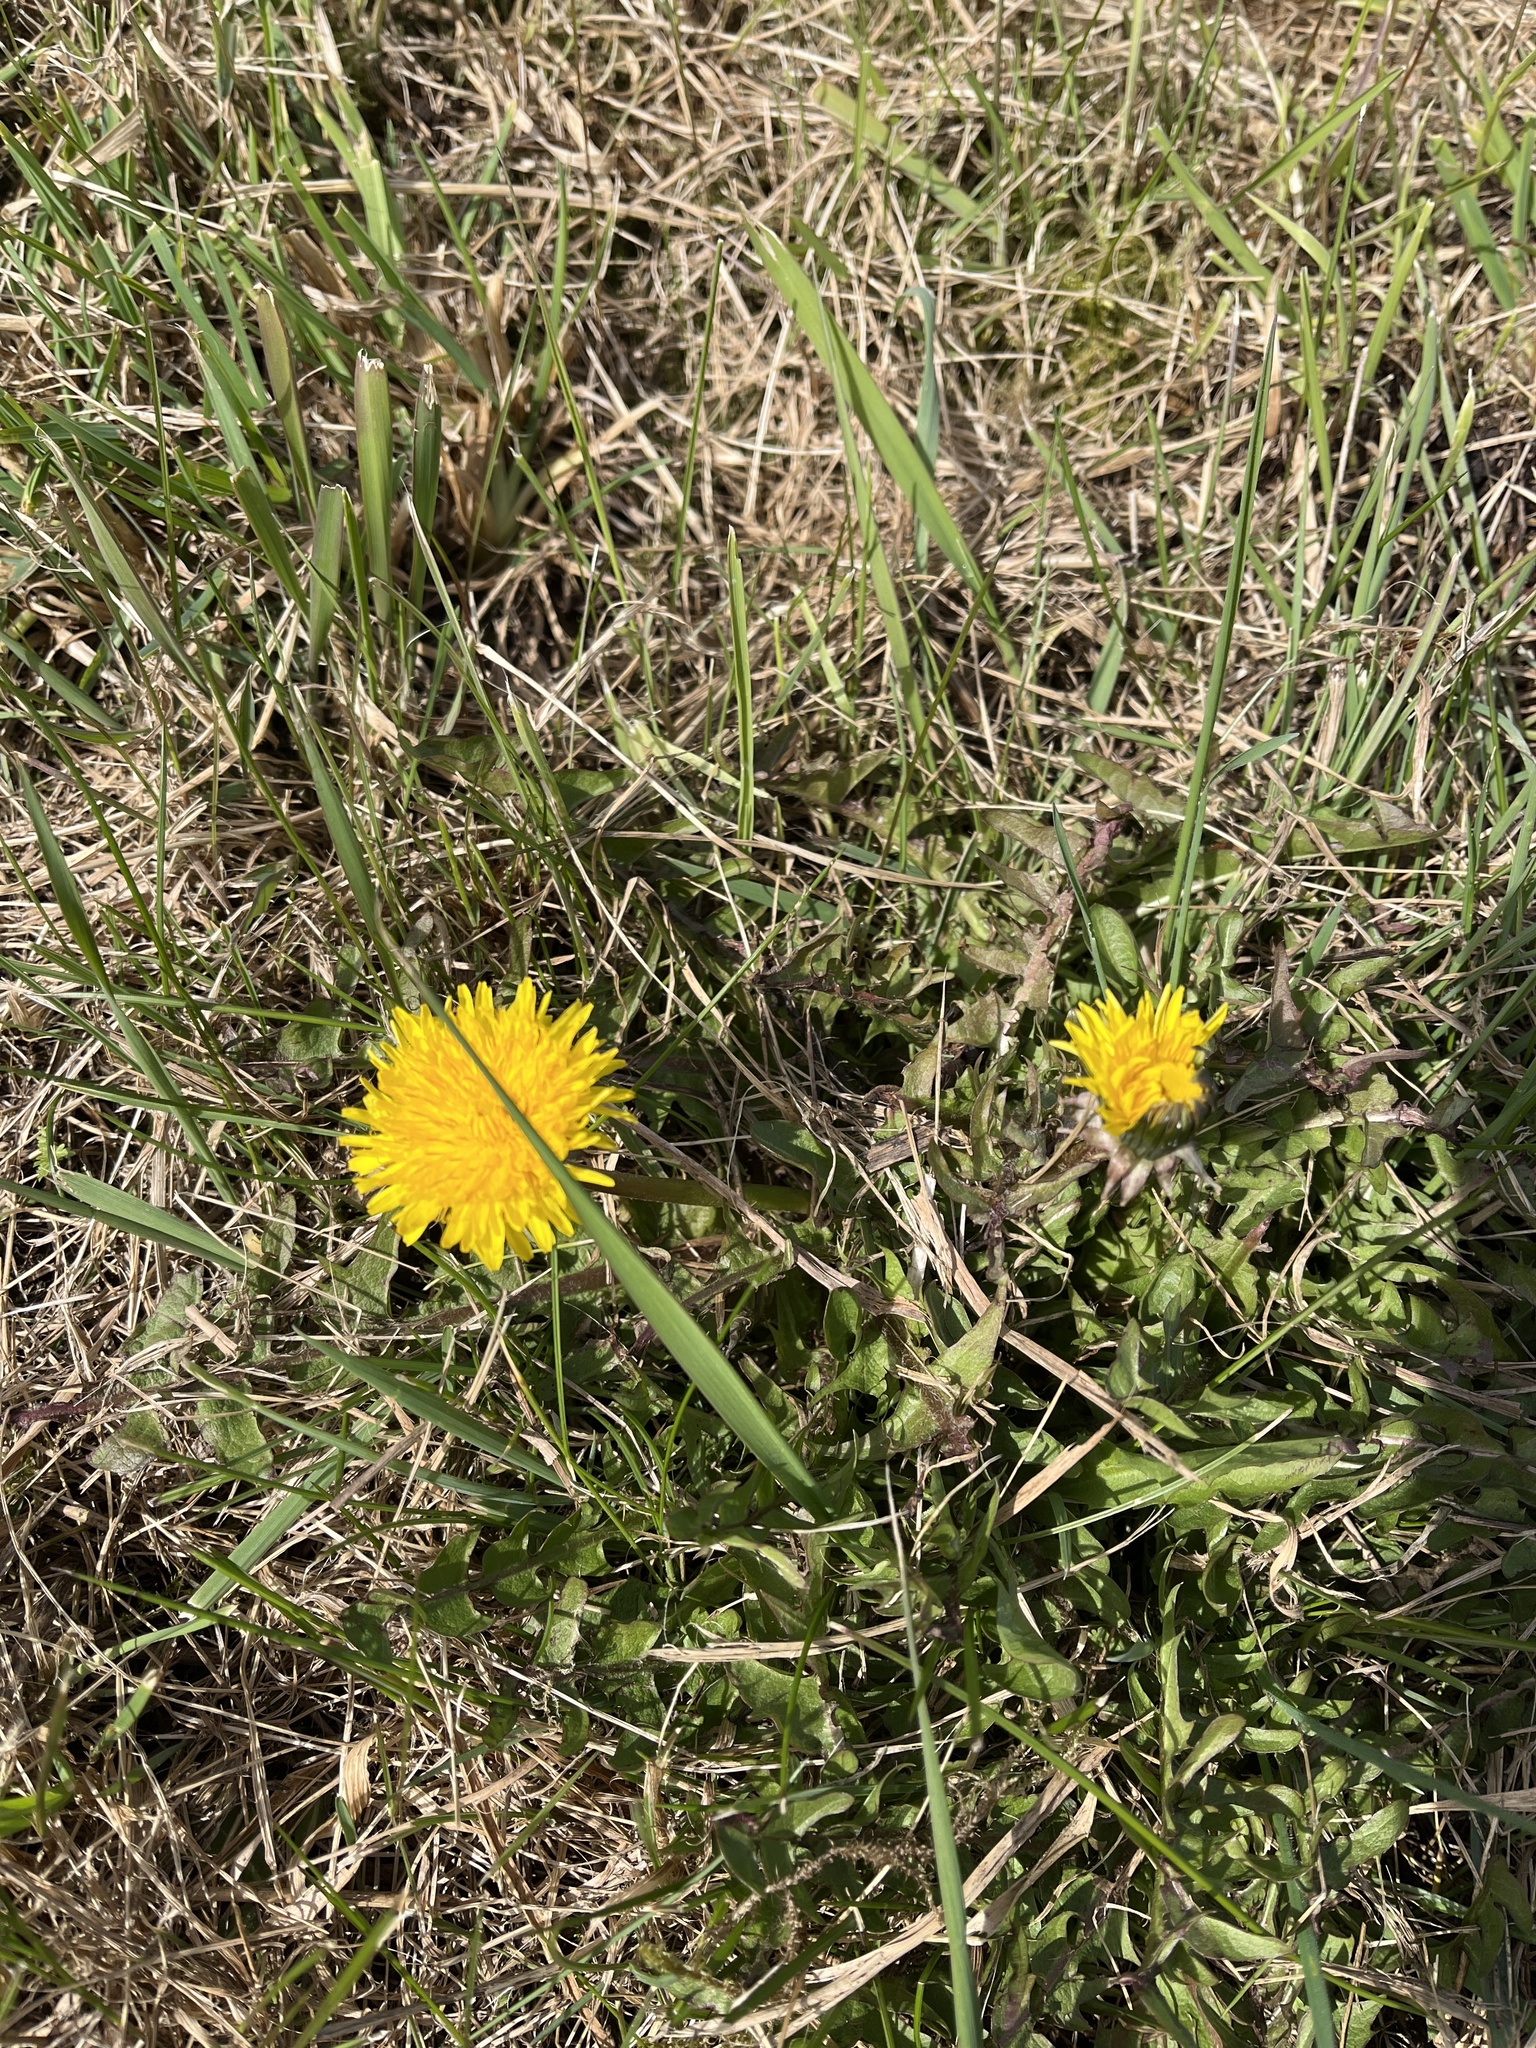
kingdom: Plantae
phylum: Tracheophyta
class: Magnoliopsida
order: Asterales
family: Asteraceae
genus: Taraxacum
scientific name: Taraxacum officinale
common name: Common dandelion
